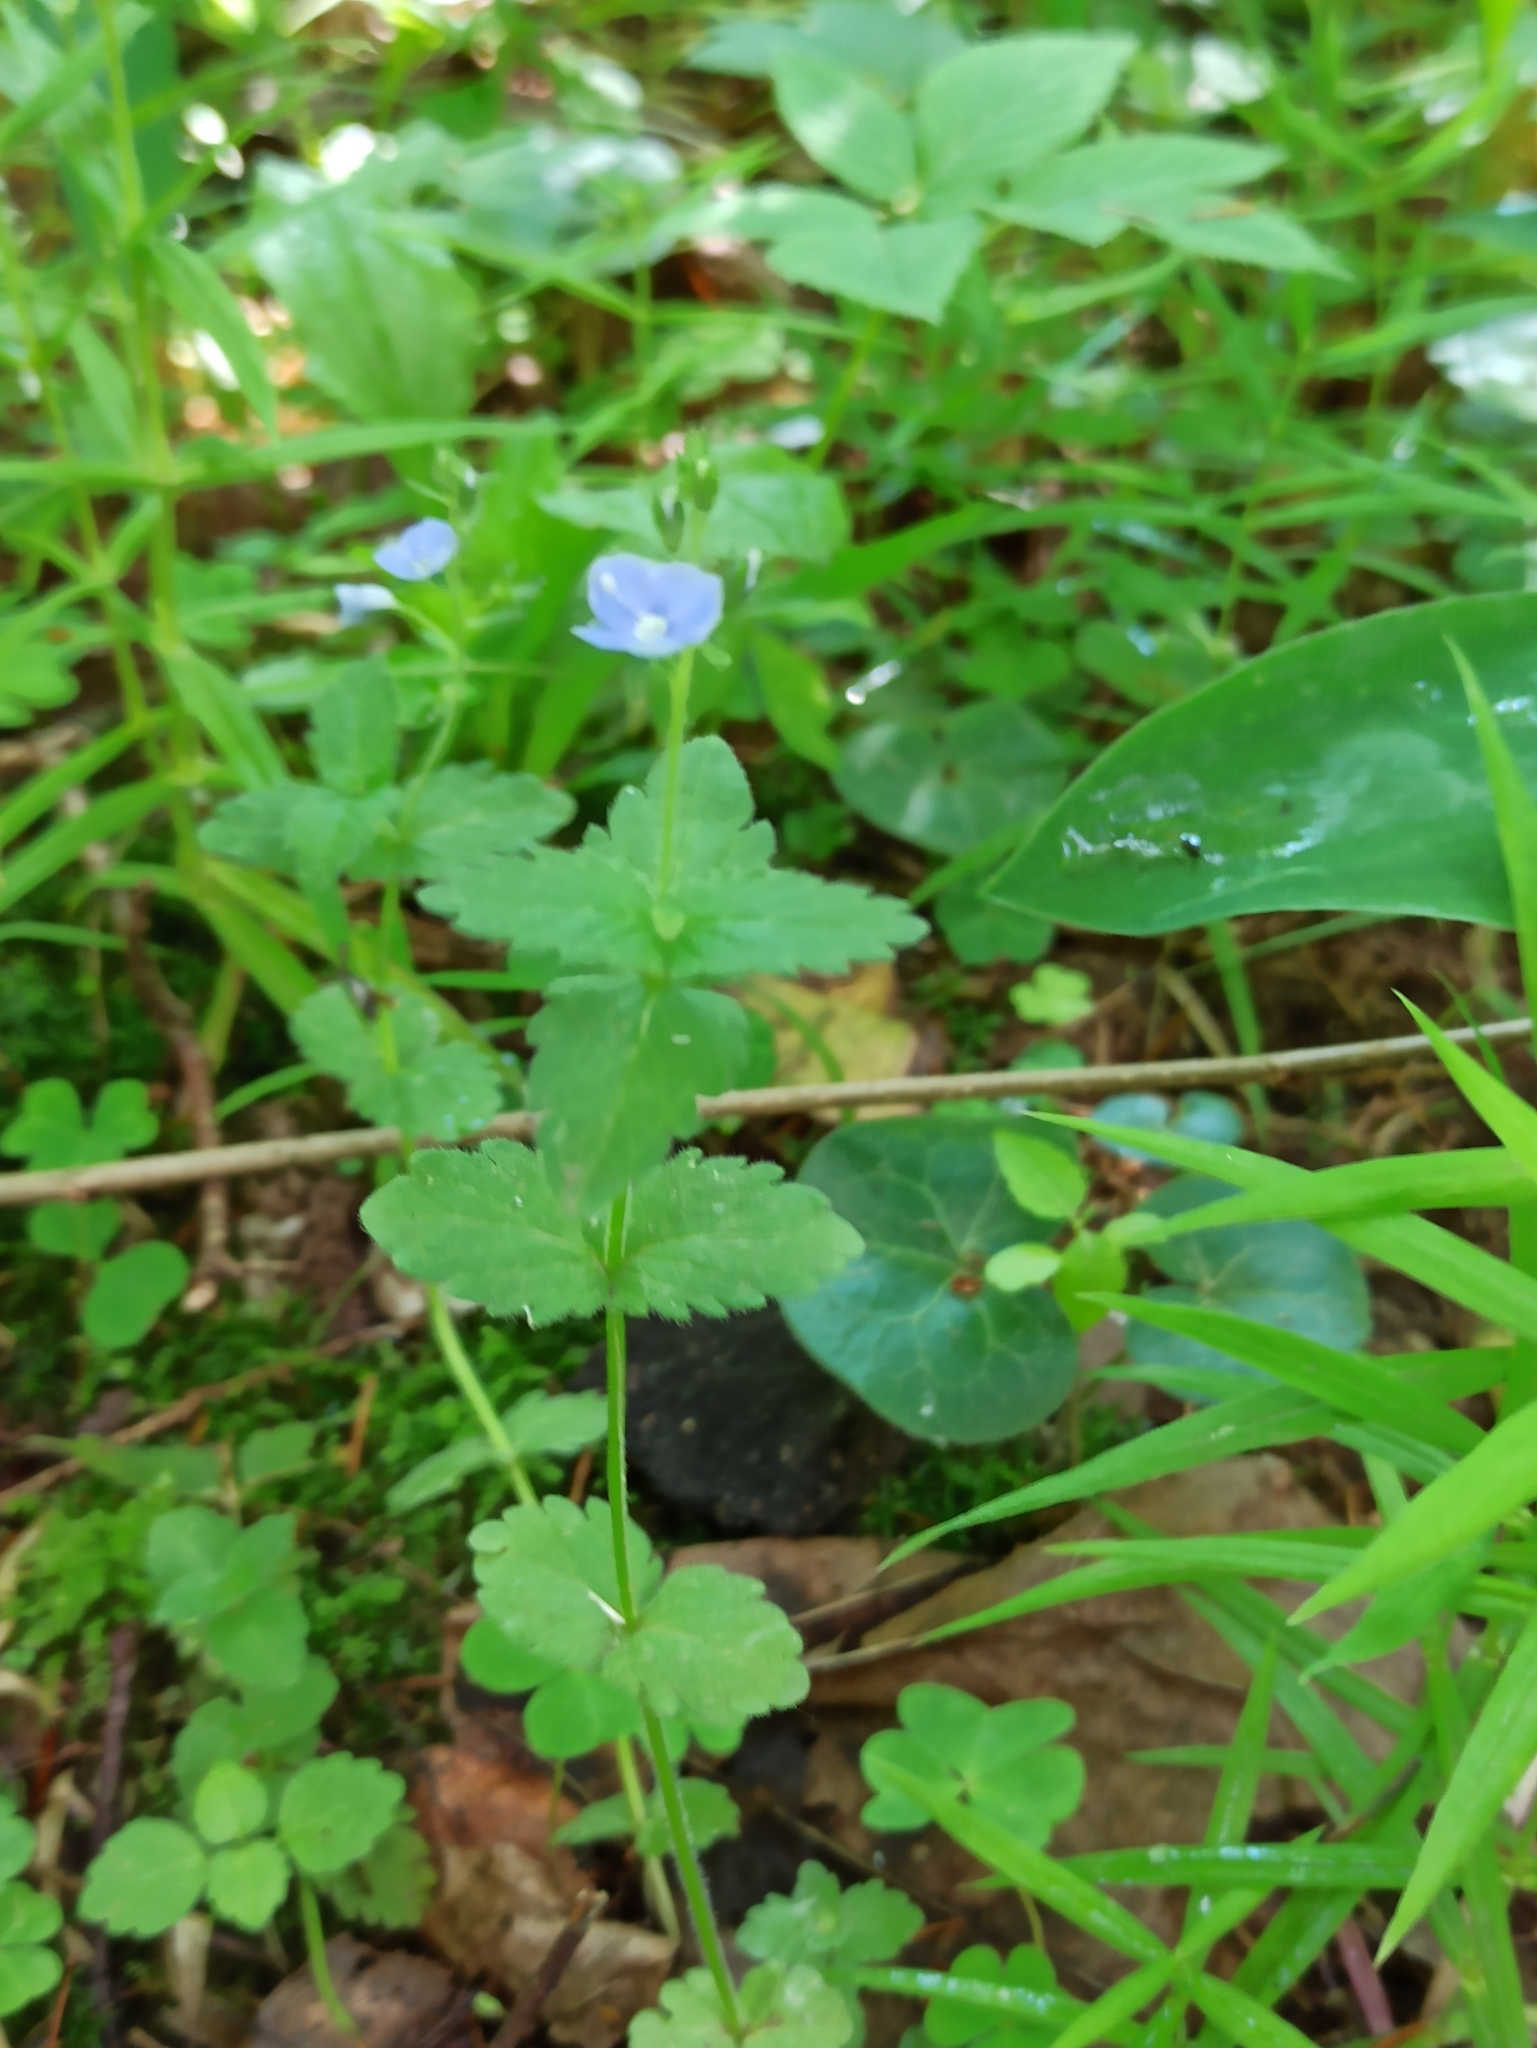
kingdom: Plantae
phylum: Tracheophyta
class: Magnoliopsida
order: Lamiales
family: Plantaginaceae
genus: Veronica
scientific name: Veronica chamaedrys
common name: Germander speedwell
